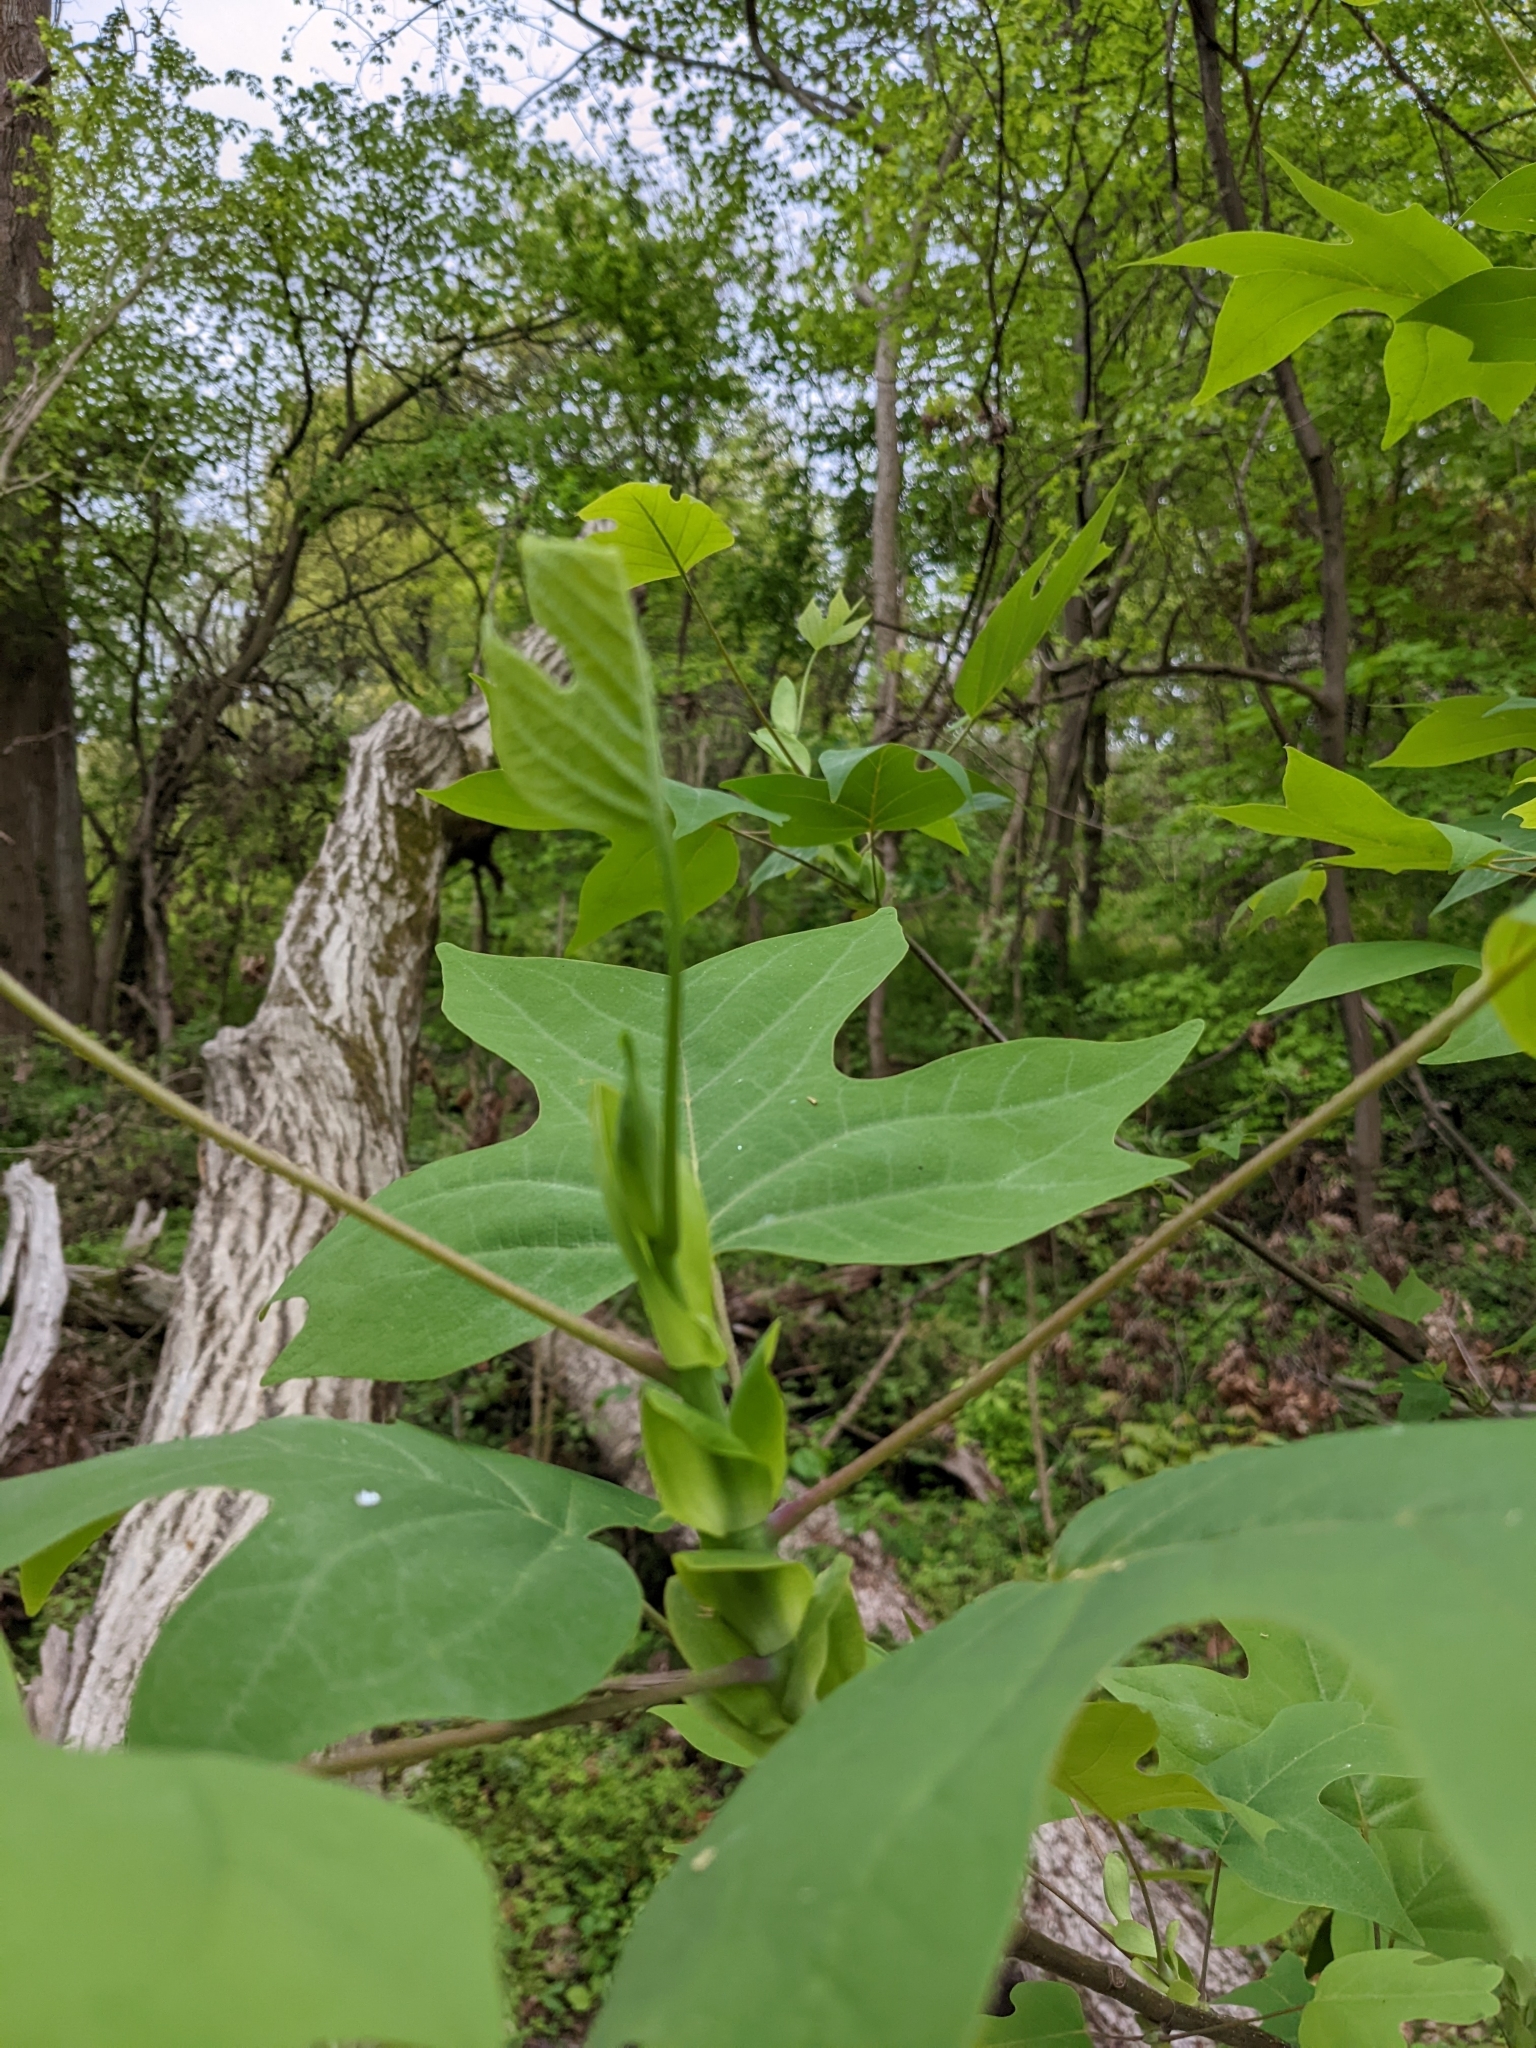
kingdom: Plantae
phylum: Tracheophyta
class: Magnoliopsida
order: Magnoliales
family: Magnoliaceae
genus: Liriodendron
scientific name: Liriodendron tulipifera
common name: Tulip tree
